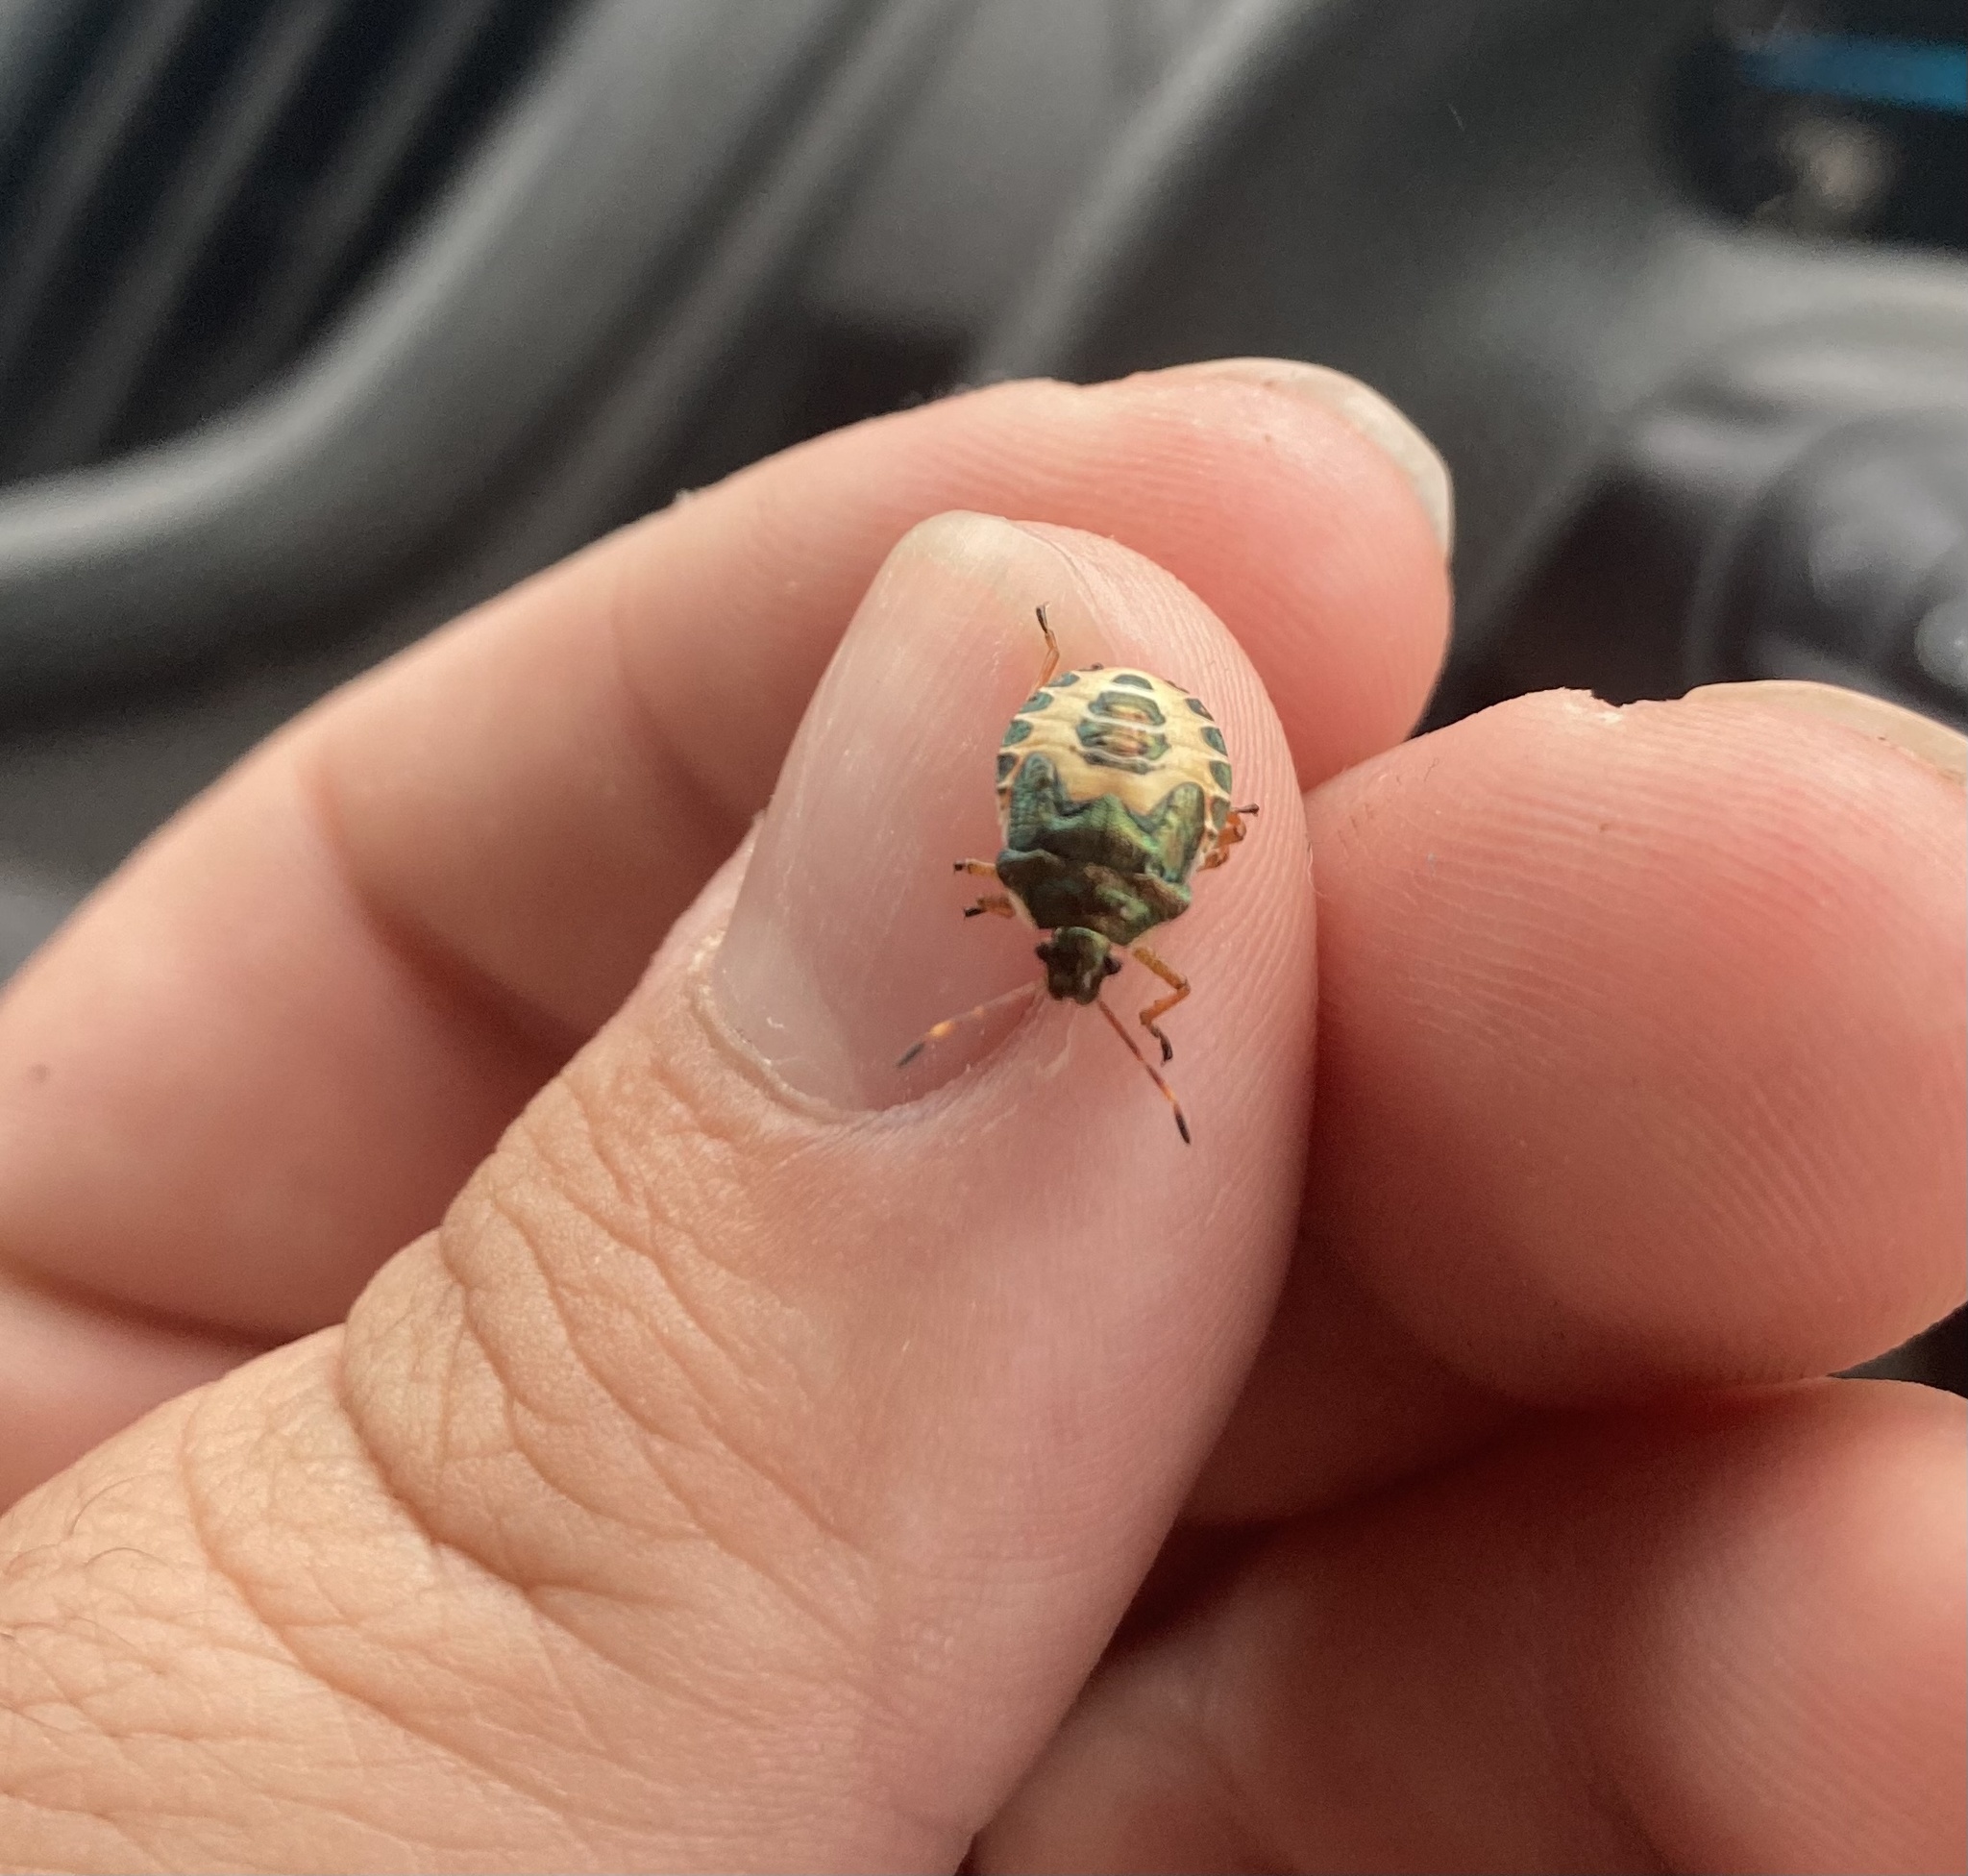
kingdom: Animalia
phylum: Arthropoda
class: Insecta
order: Hemiptera
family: Pentatomidae
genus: Troilus
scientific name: Troilus luridus
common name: Bronze shieldbug
